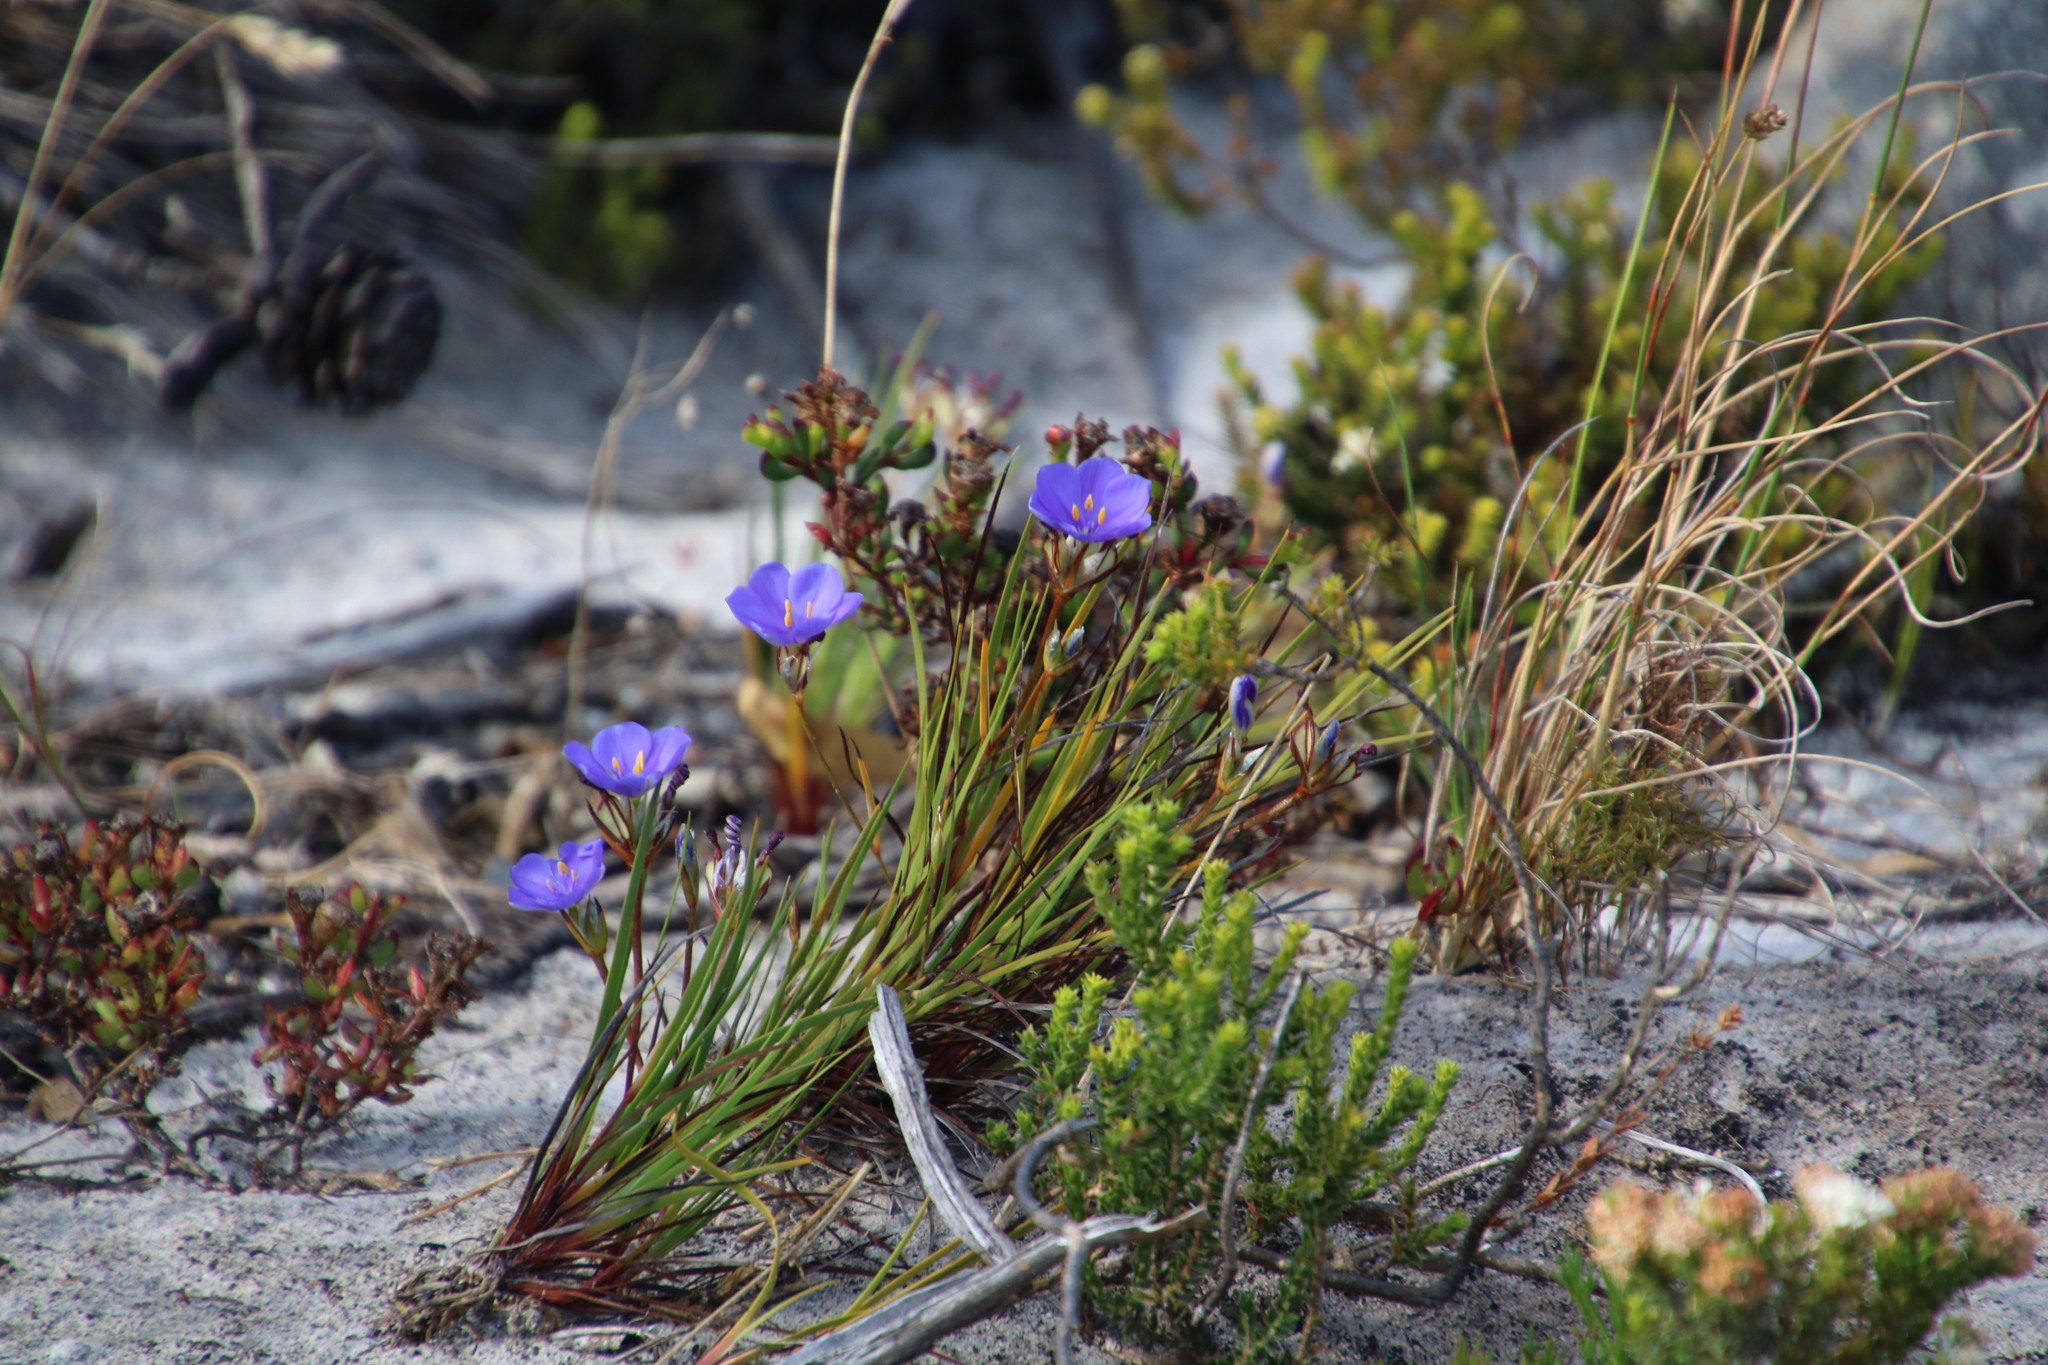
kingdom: Plantae
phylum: Tracheophyta
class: Liliopsida
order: Asparagales
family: Iridaceae
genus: Aristea
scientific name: Aristea africana
